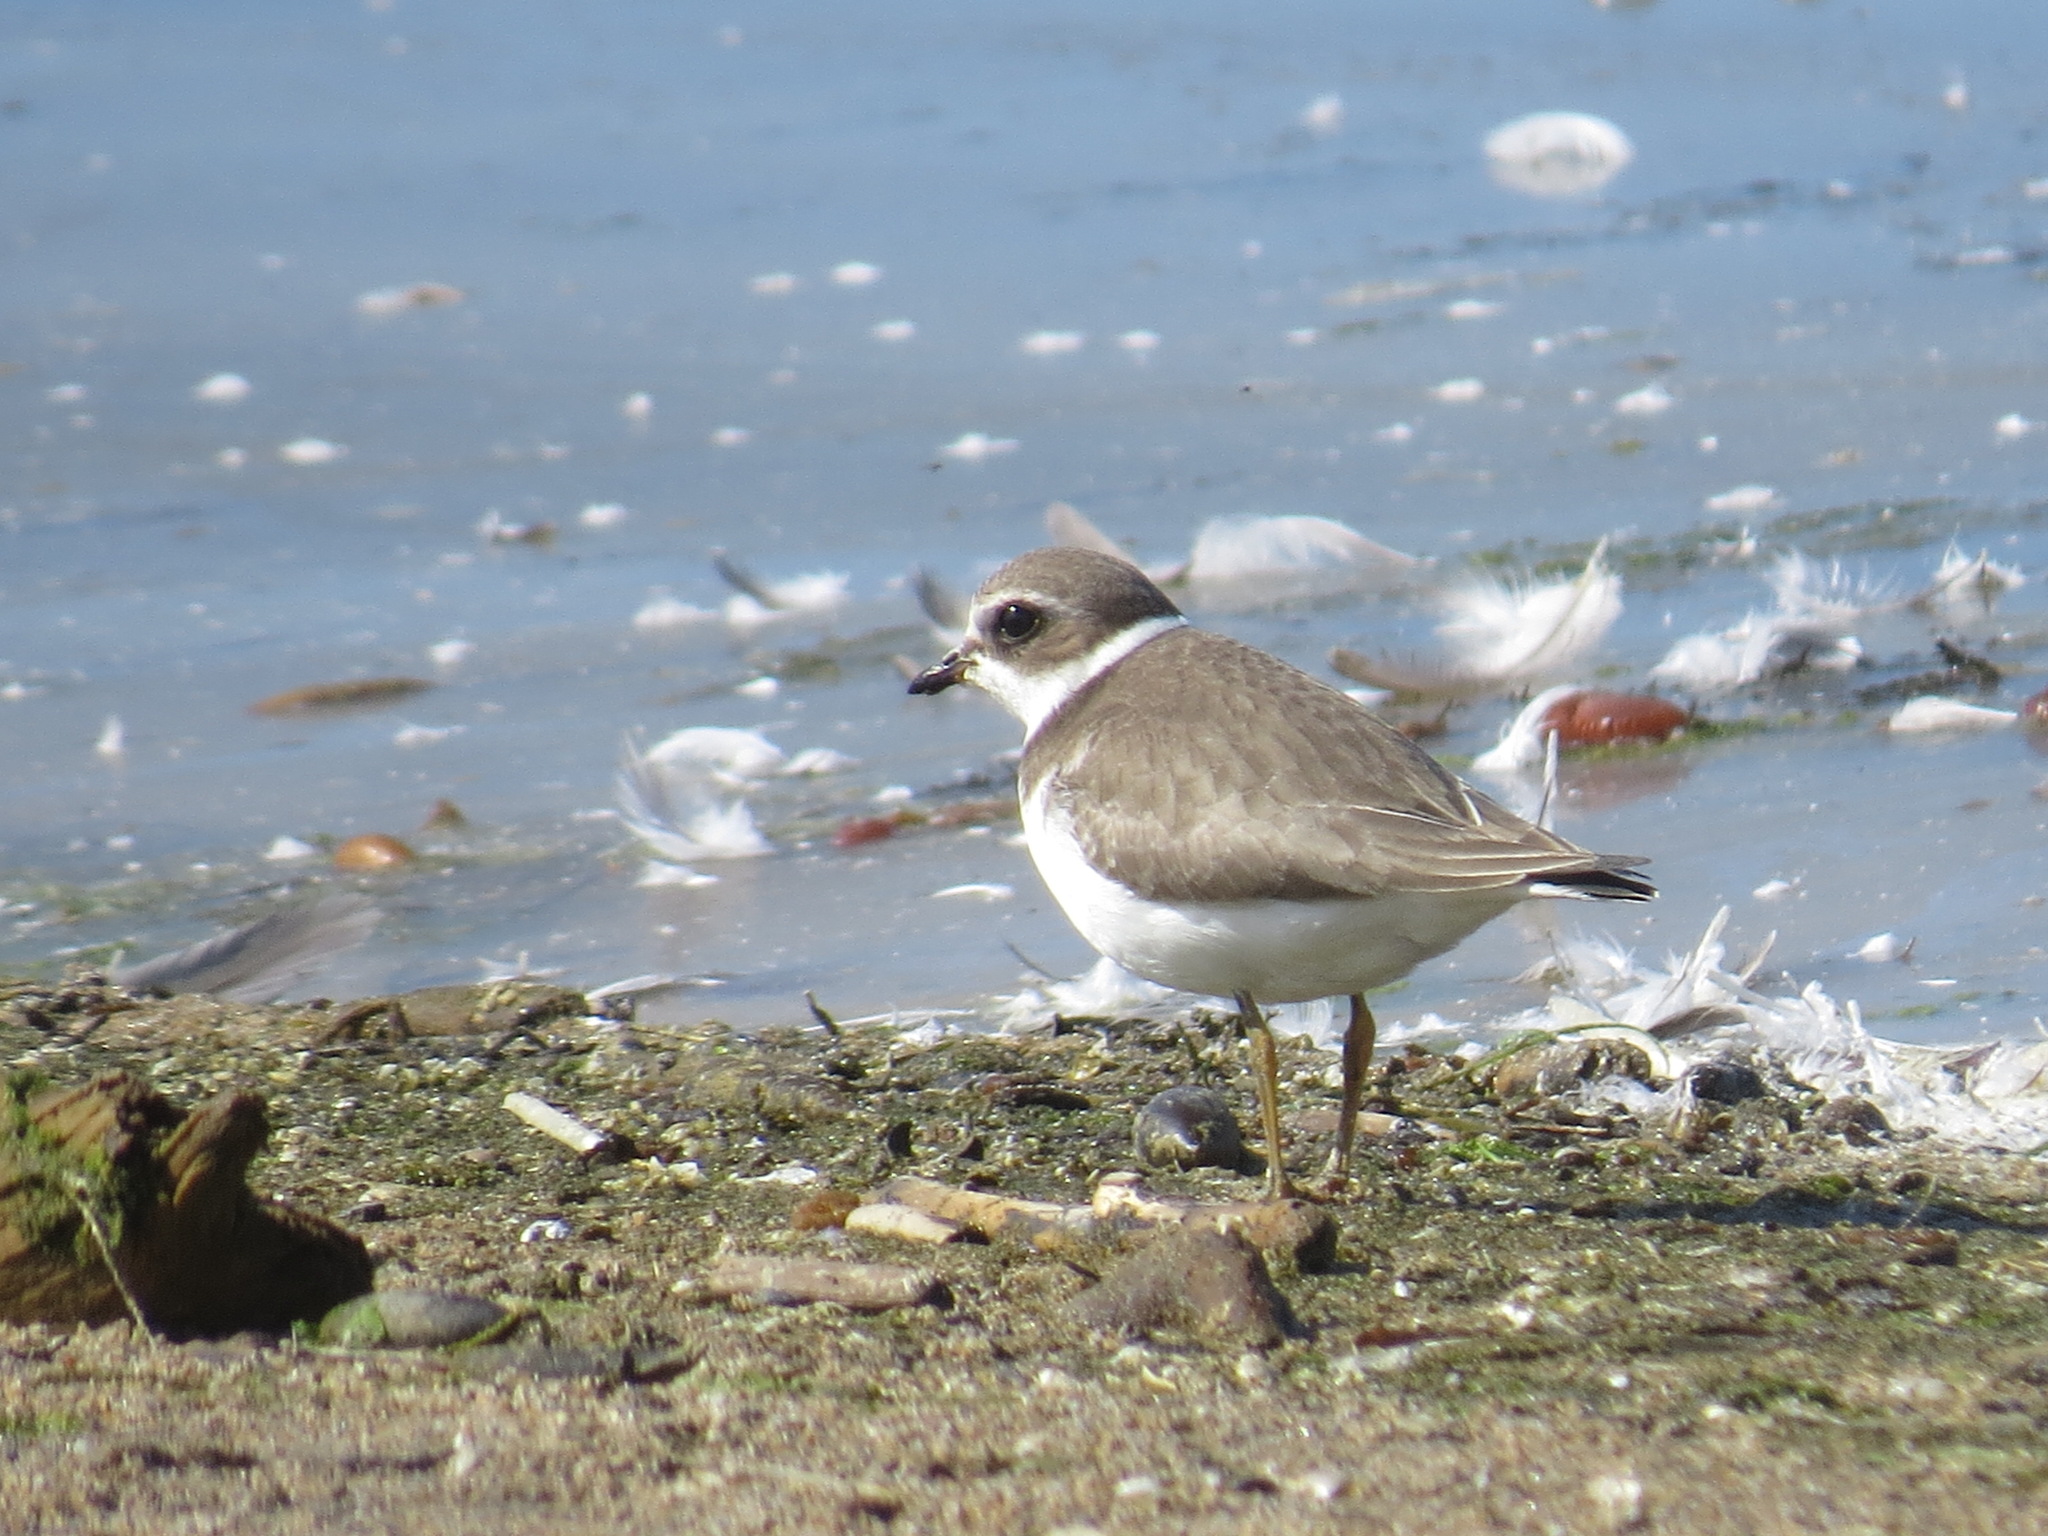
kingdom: Animalia
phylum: Chordata
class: Aves
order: Charadriiformes
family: Charadriidae
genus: Charadrius
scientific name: Charadrius semipalmatus
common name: Semipalmated plover
